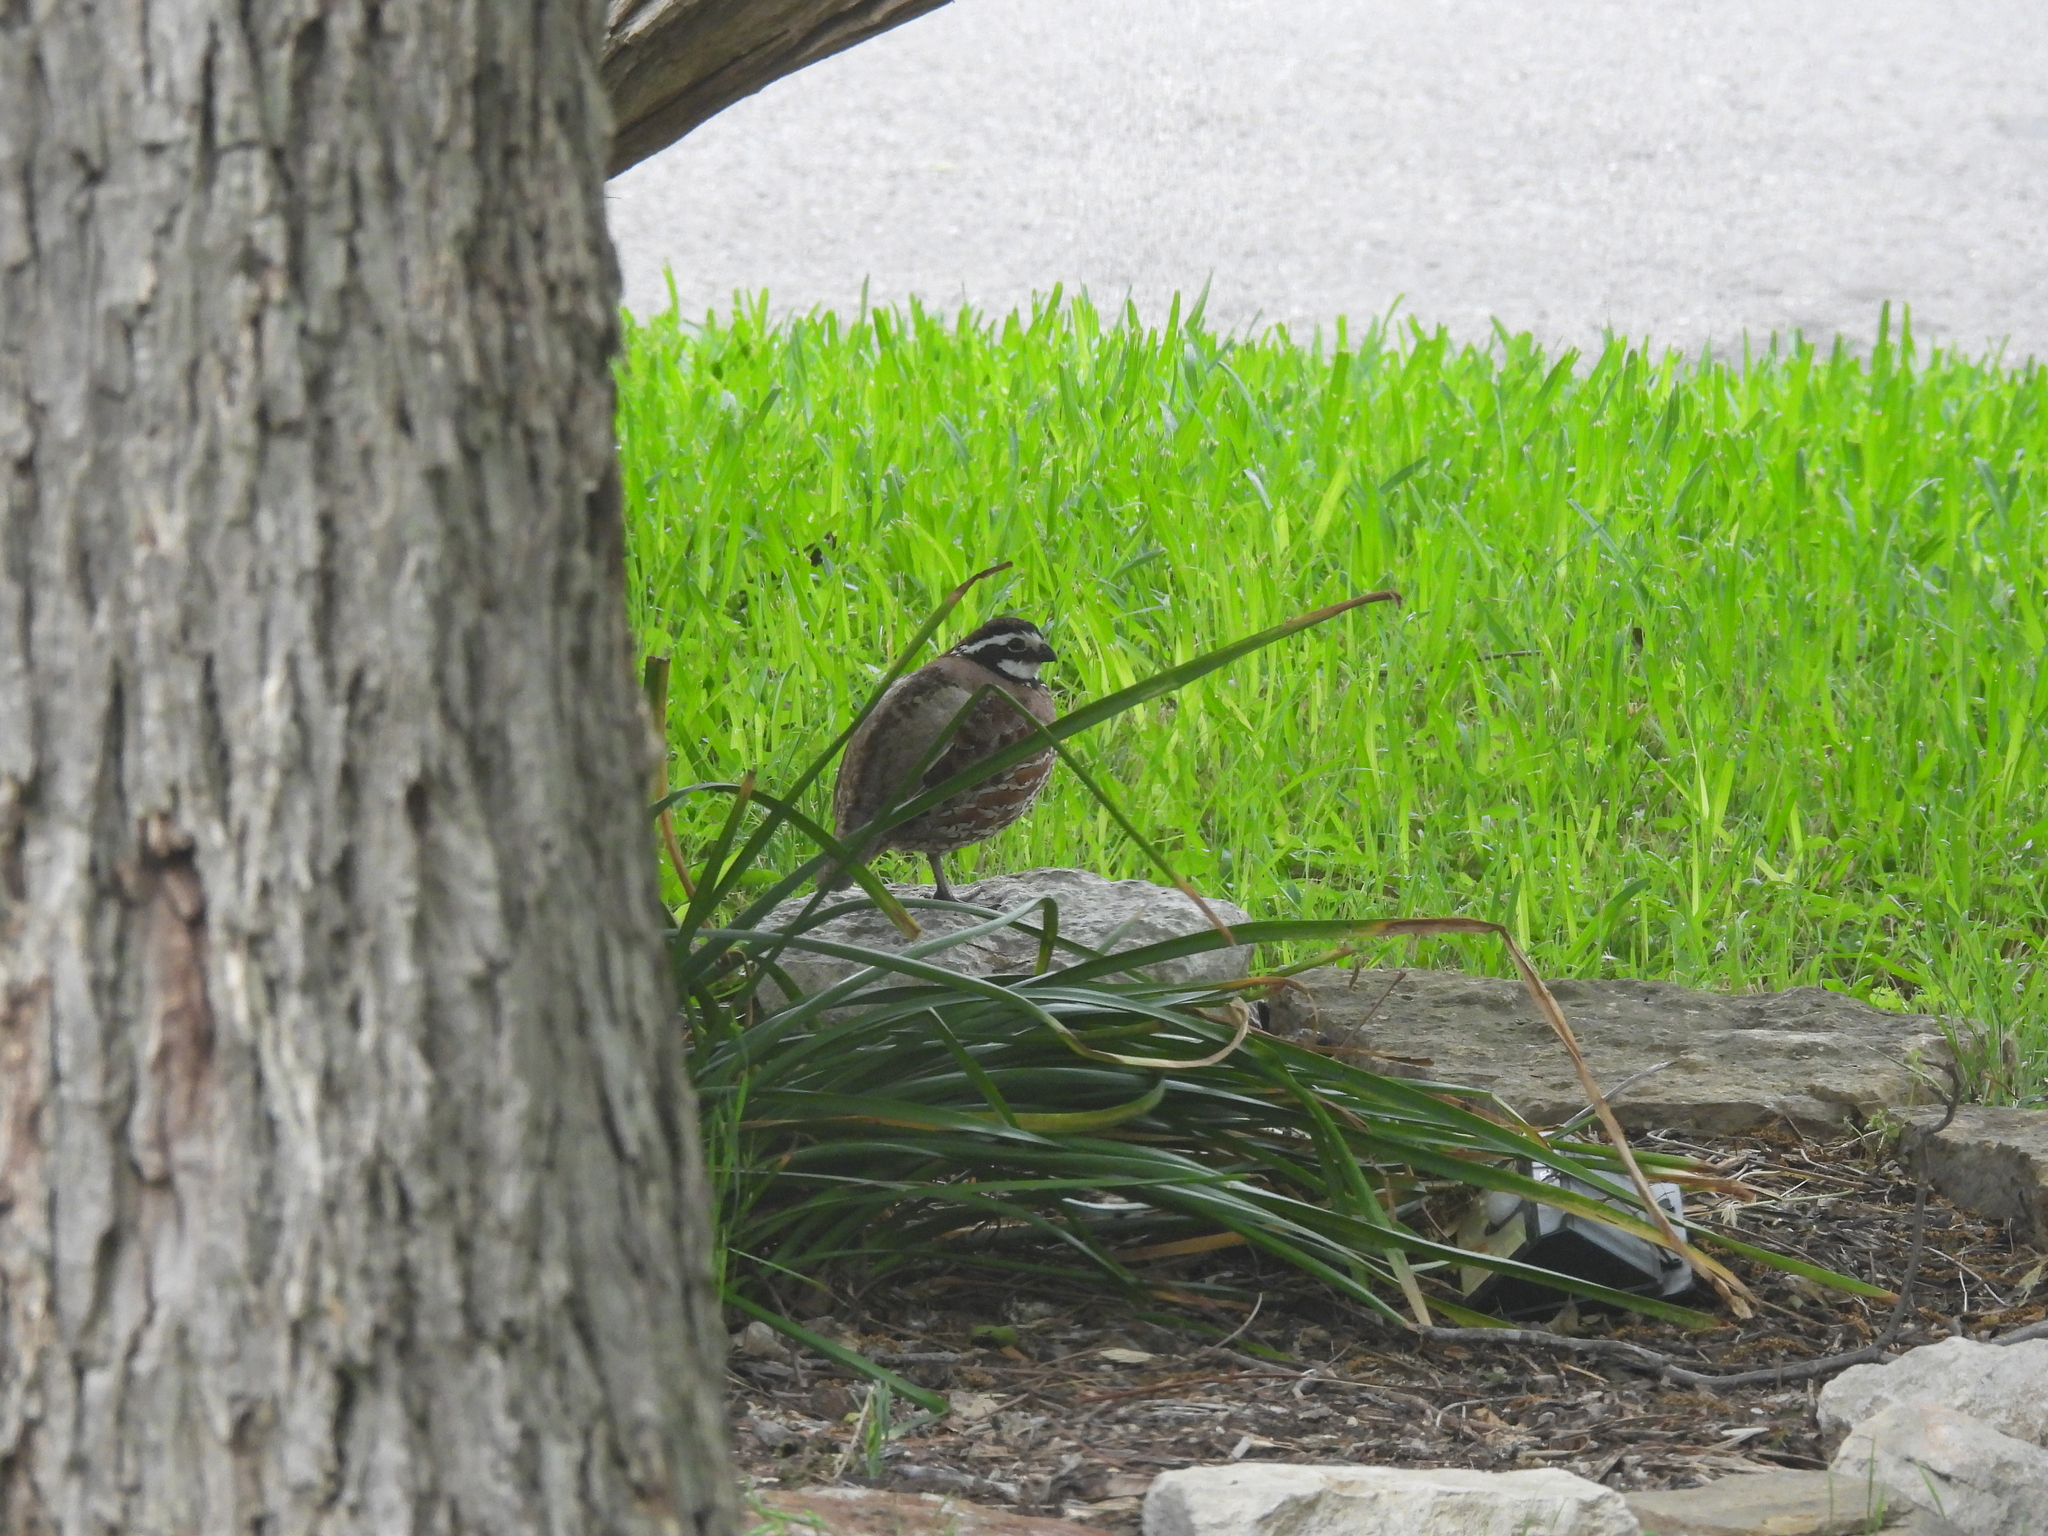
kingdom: Animalia
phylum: Chordata
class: Aves
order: Galliformes
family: Odontophoridae
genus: Colinus
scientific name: Colinus virginianus
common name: Northern bobwhite
